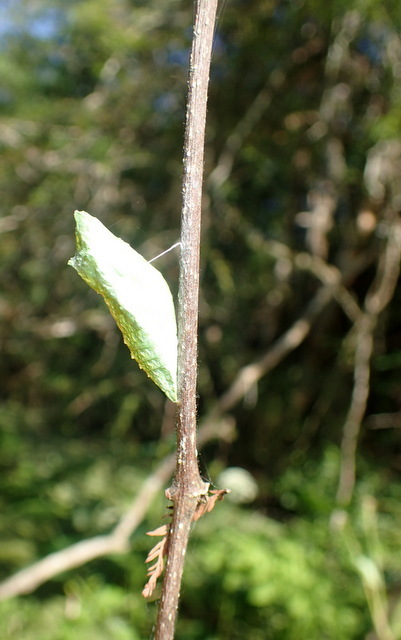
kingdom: Animalia
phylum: Arthropoda
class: Insecta
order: Lepidoptera
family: Papilionidae
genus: Papilio
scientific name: Papilio polyxenes
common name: Black swallowtail
